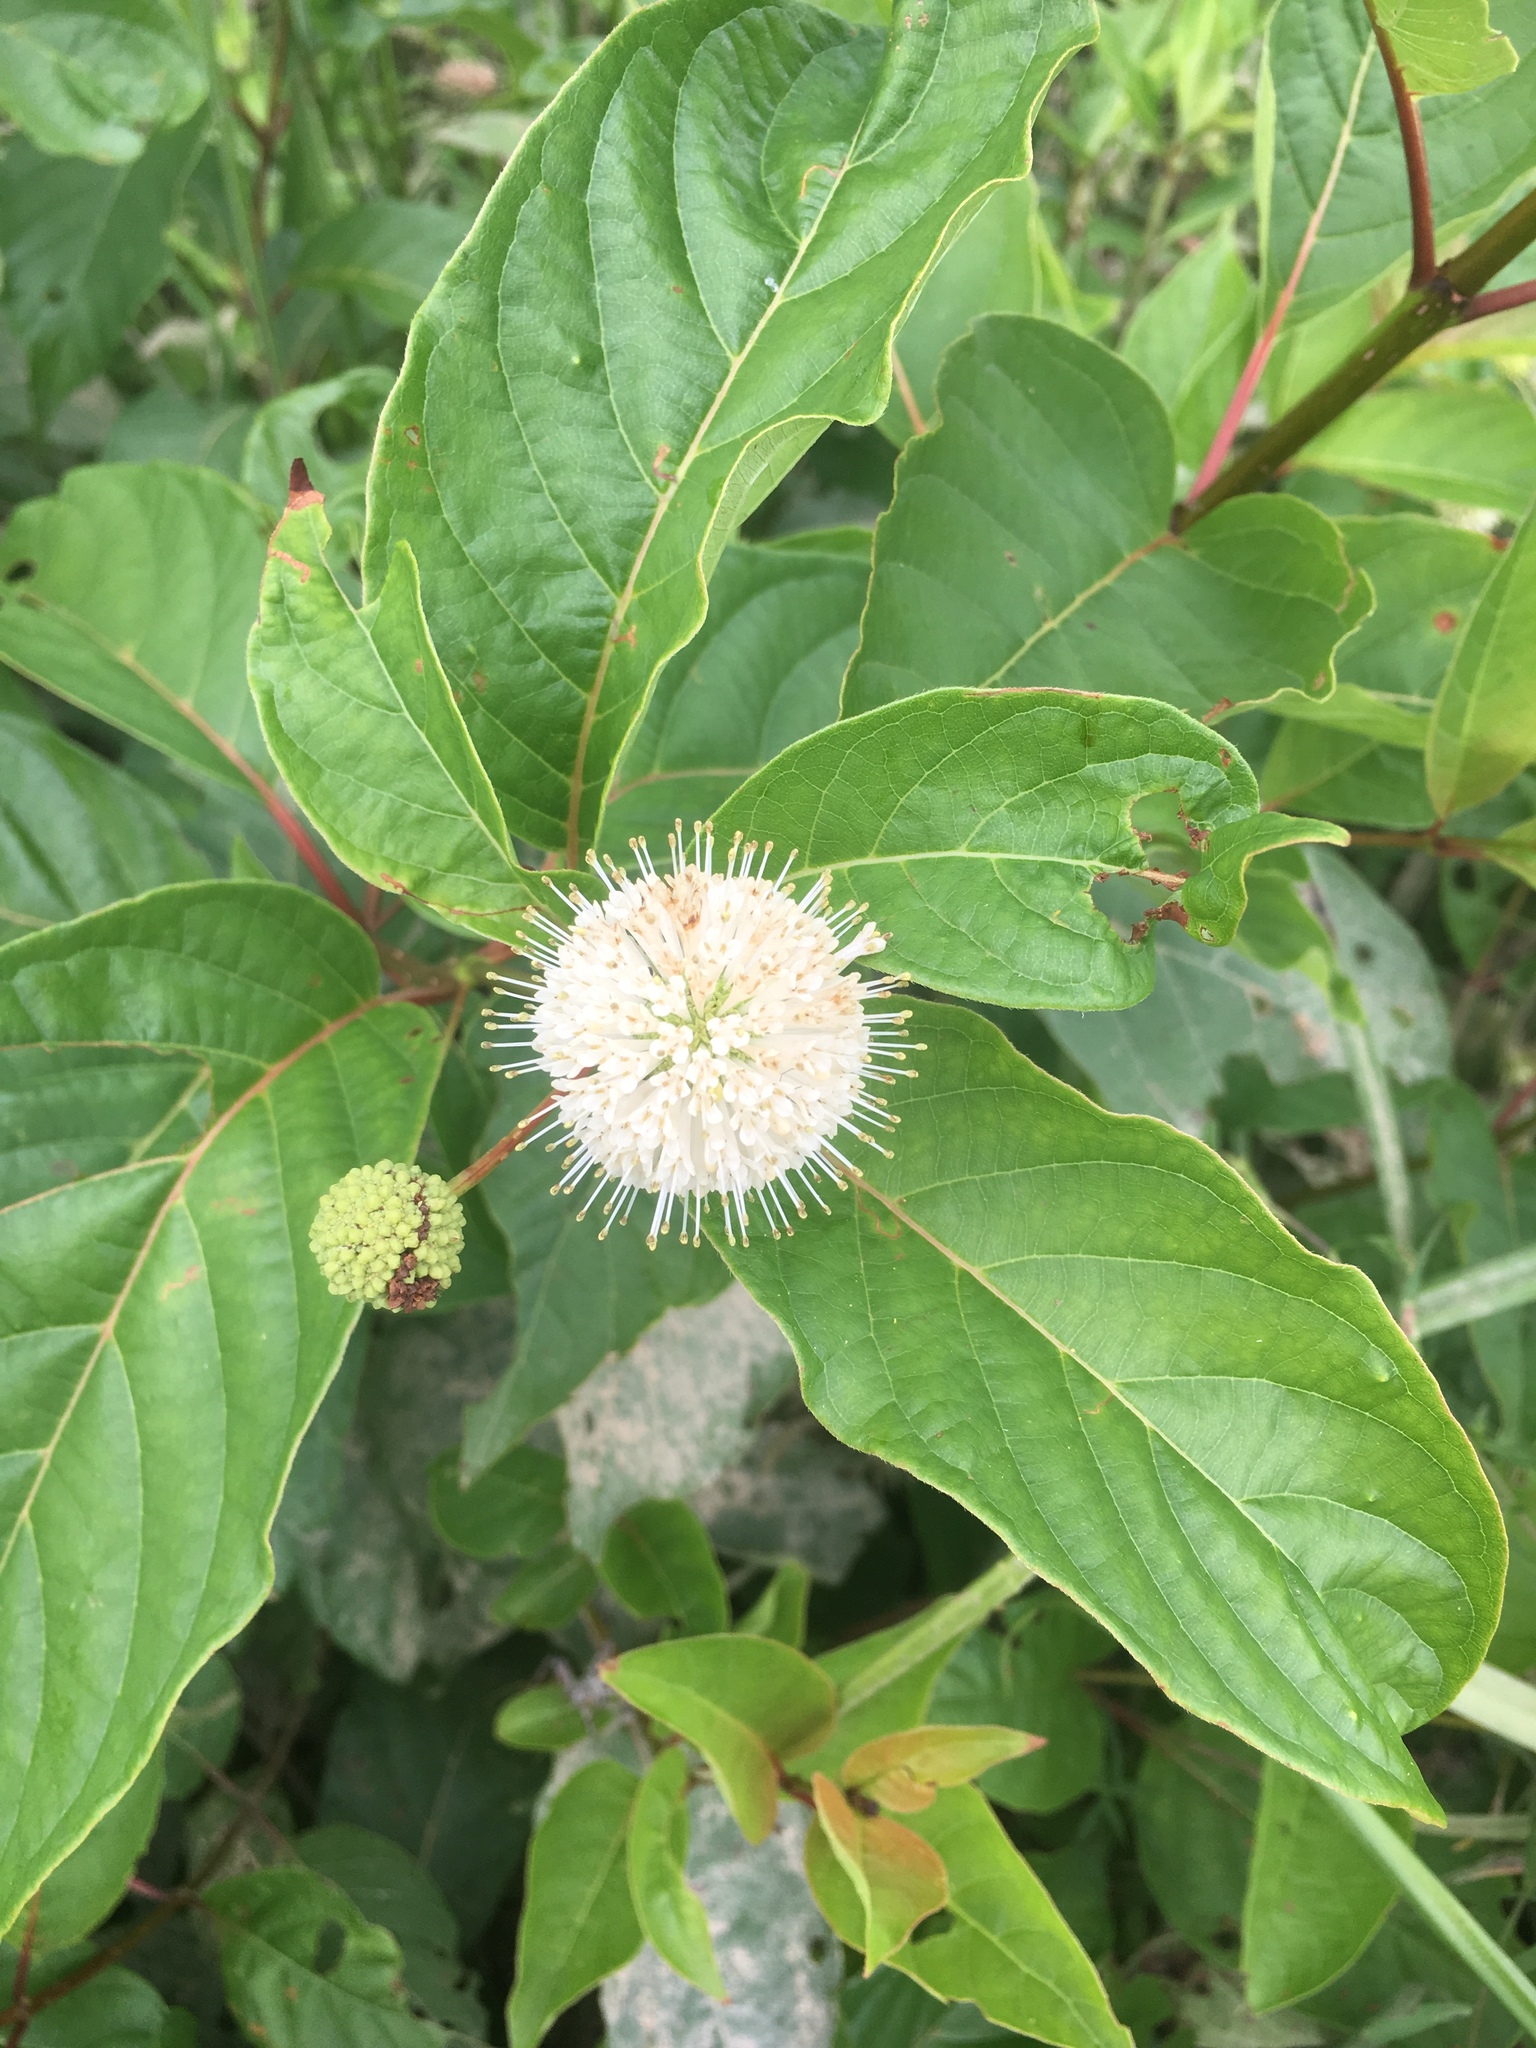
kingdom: Plantae
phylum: Tracheophyta
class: Magnoliopsida
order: Gentianales
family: Rubiaceae
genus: Cephalanthus
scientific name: Cephalanthus occidentalis
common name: Button-willow
